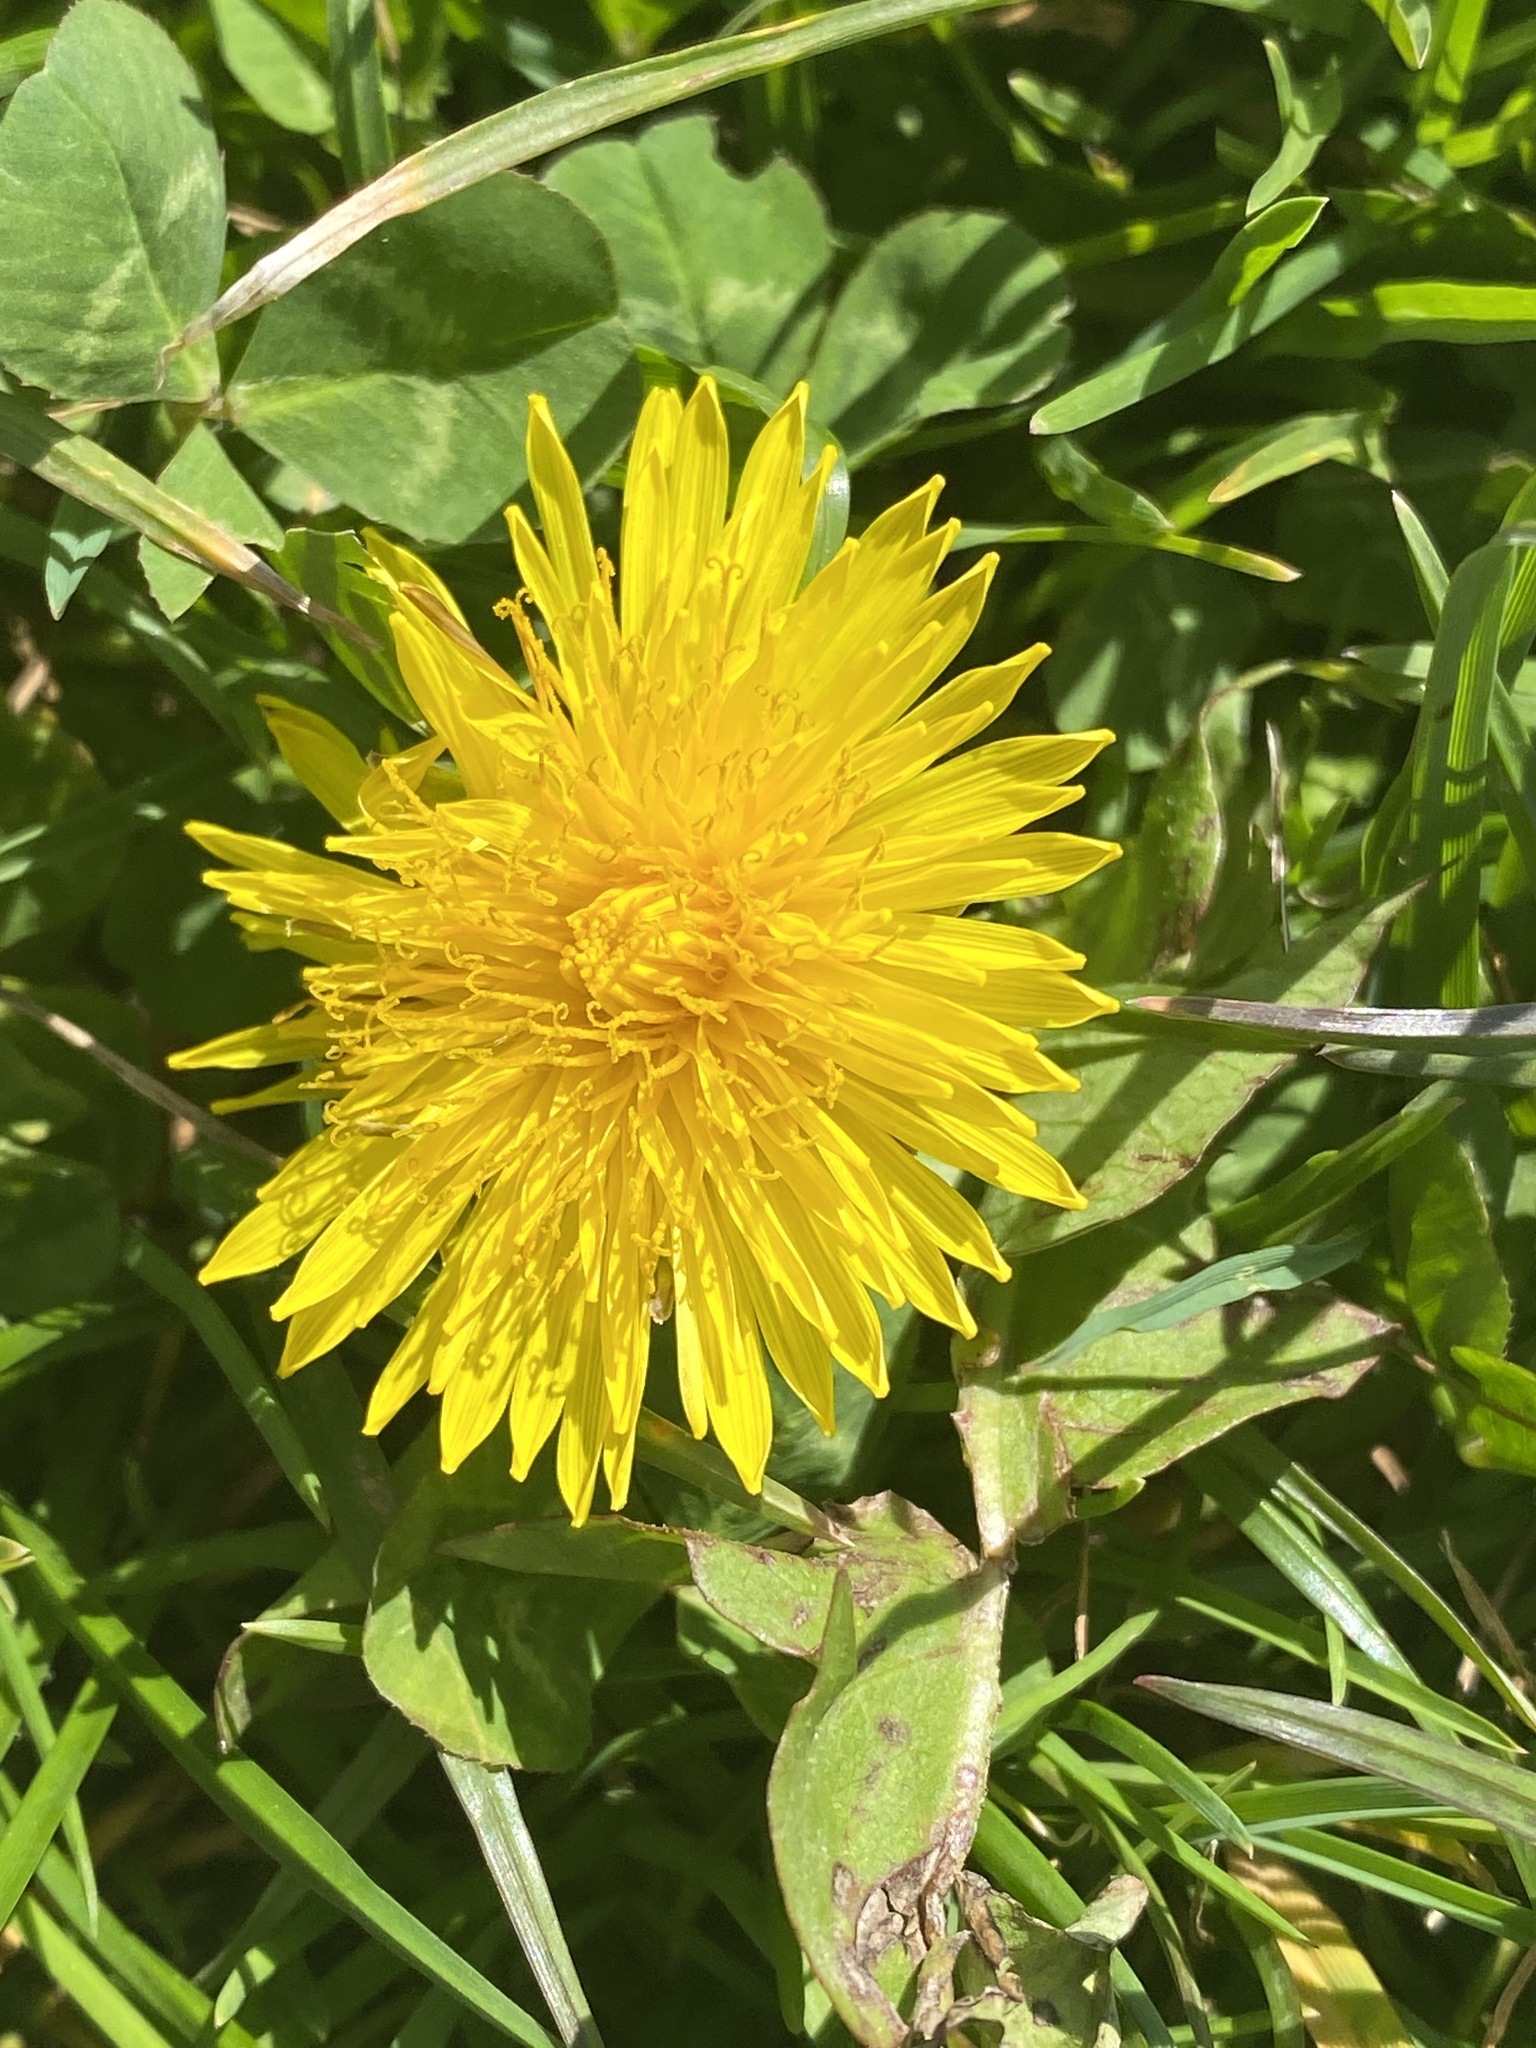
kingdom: Plantae
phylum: Tracheophyta
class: Magnoliopsida
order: Asterales
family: Asteraceae
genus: Taraxacum
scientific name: Taraxacum officinale
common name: Common dandelion
